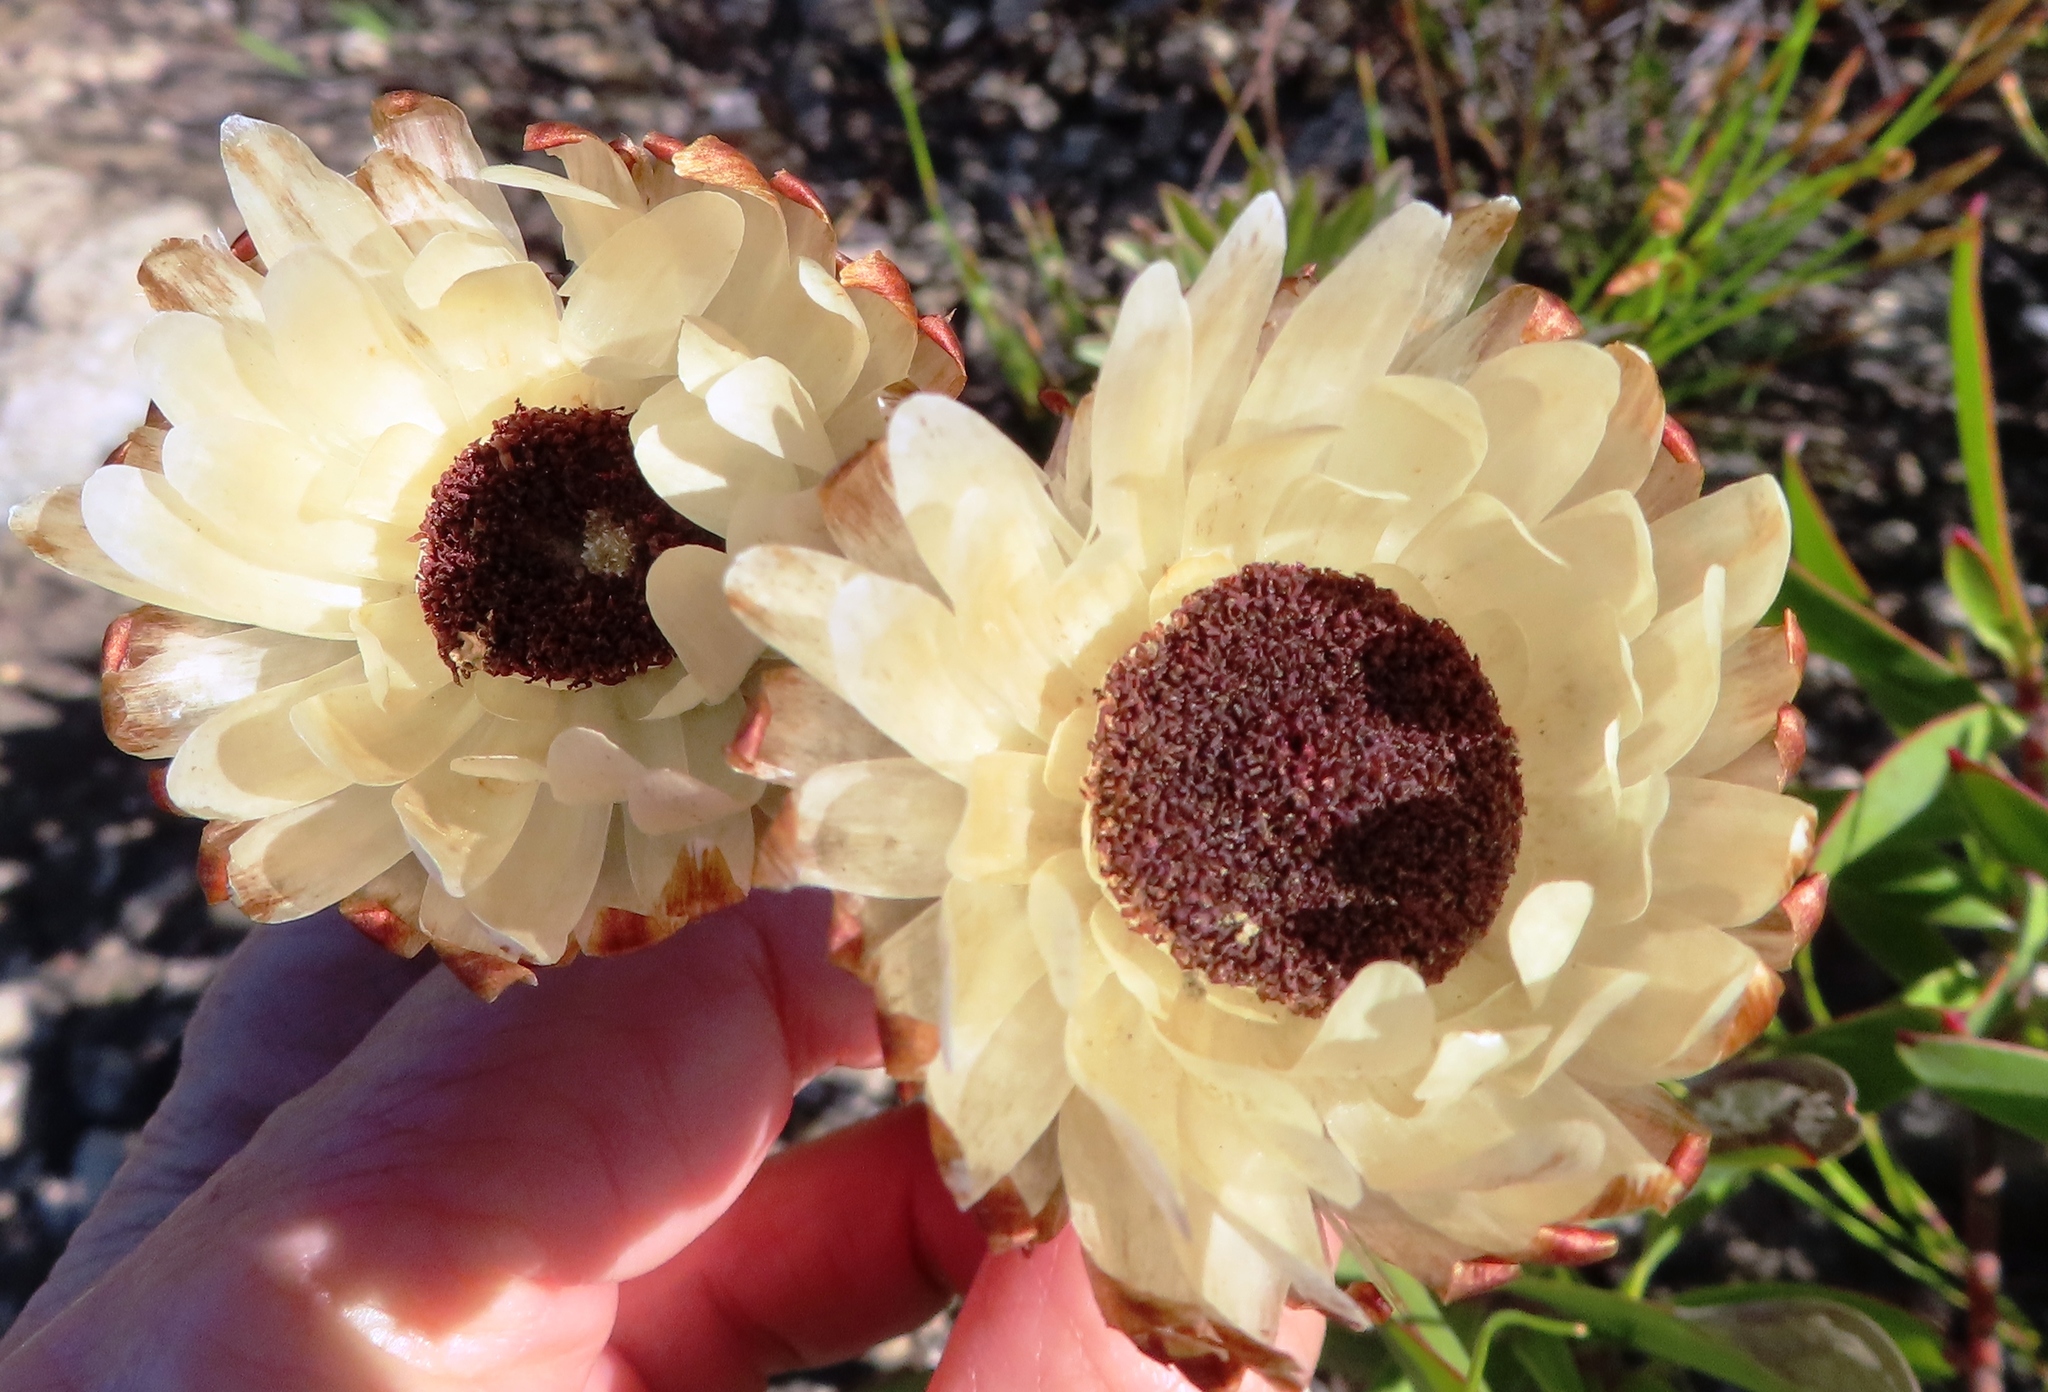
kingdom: Plantae
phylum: Tracheophyta
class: Magnoliopsida
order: Asterales
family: Asteraceae
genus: Syncarpha
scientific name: Syncarpha variegata
